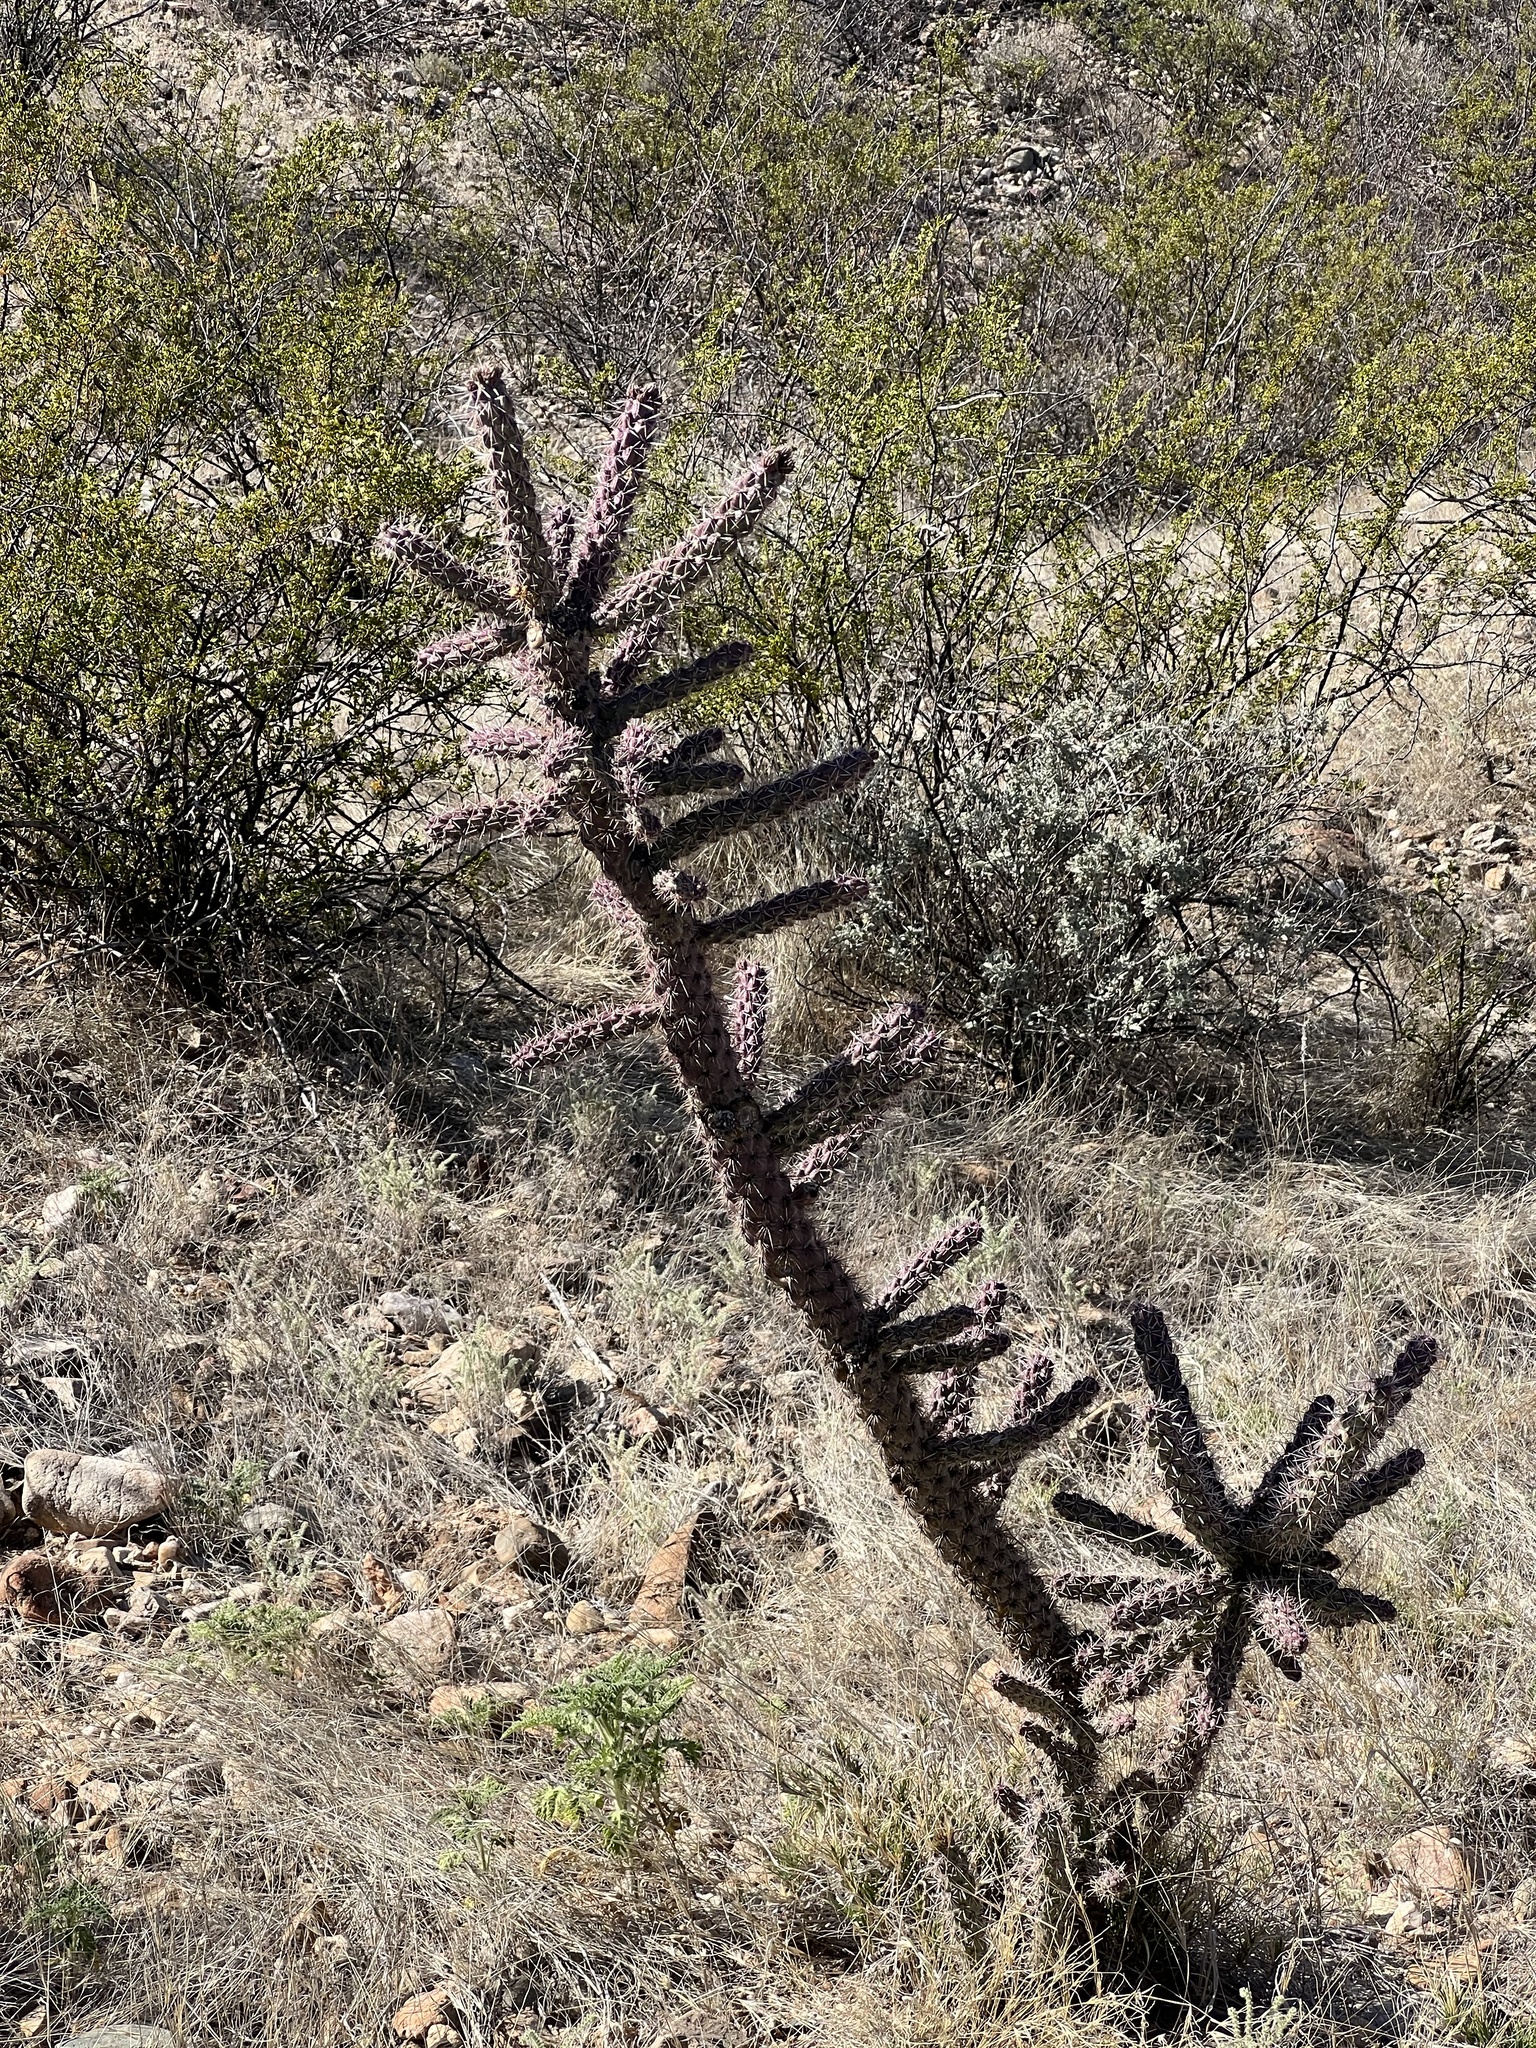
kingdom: Plantae
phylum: Tracheophyta
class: Magnoliopsida
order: Caryophyllales
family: Cactaceae
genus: Cylindropuntia
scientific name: Cylindropuntia imbricata
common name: Candelabrum cactus
